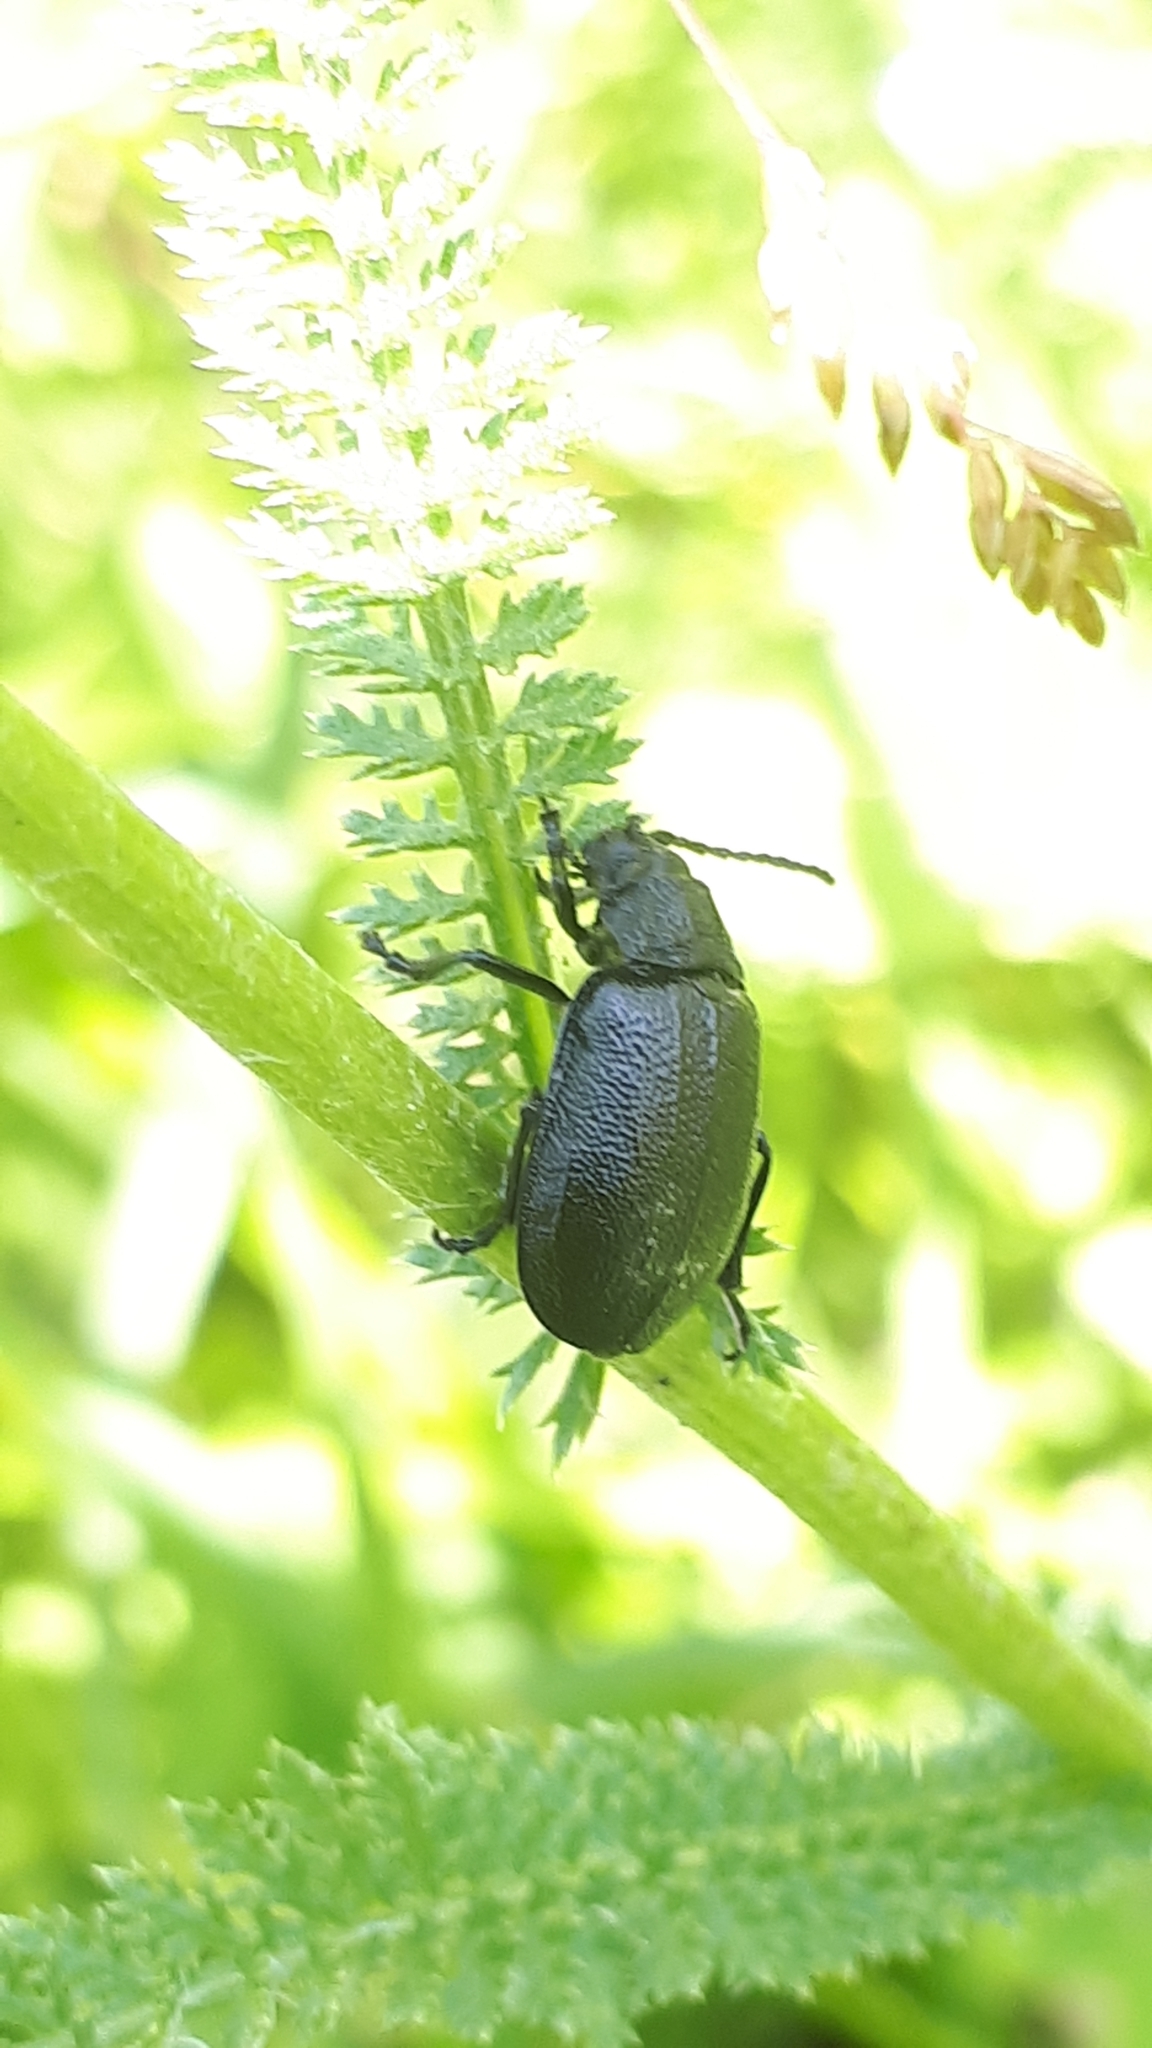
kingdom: Animalia
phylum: Arthropoda
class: Insecta
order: Coleoptera
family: Chrysomelidae
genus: Galeruca
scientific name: Galeruca tanaceti
